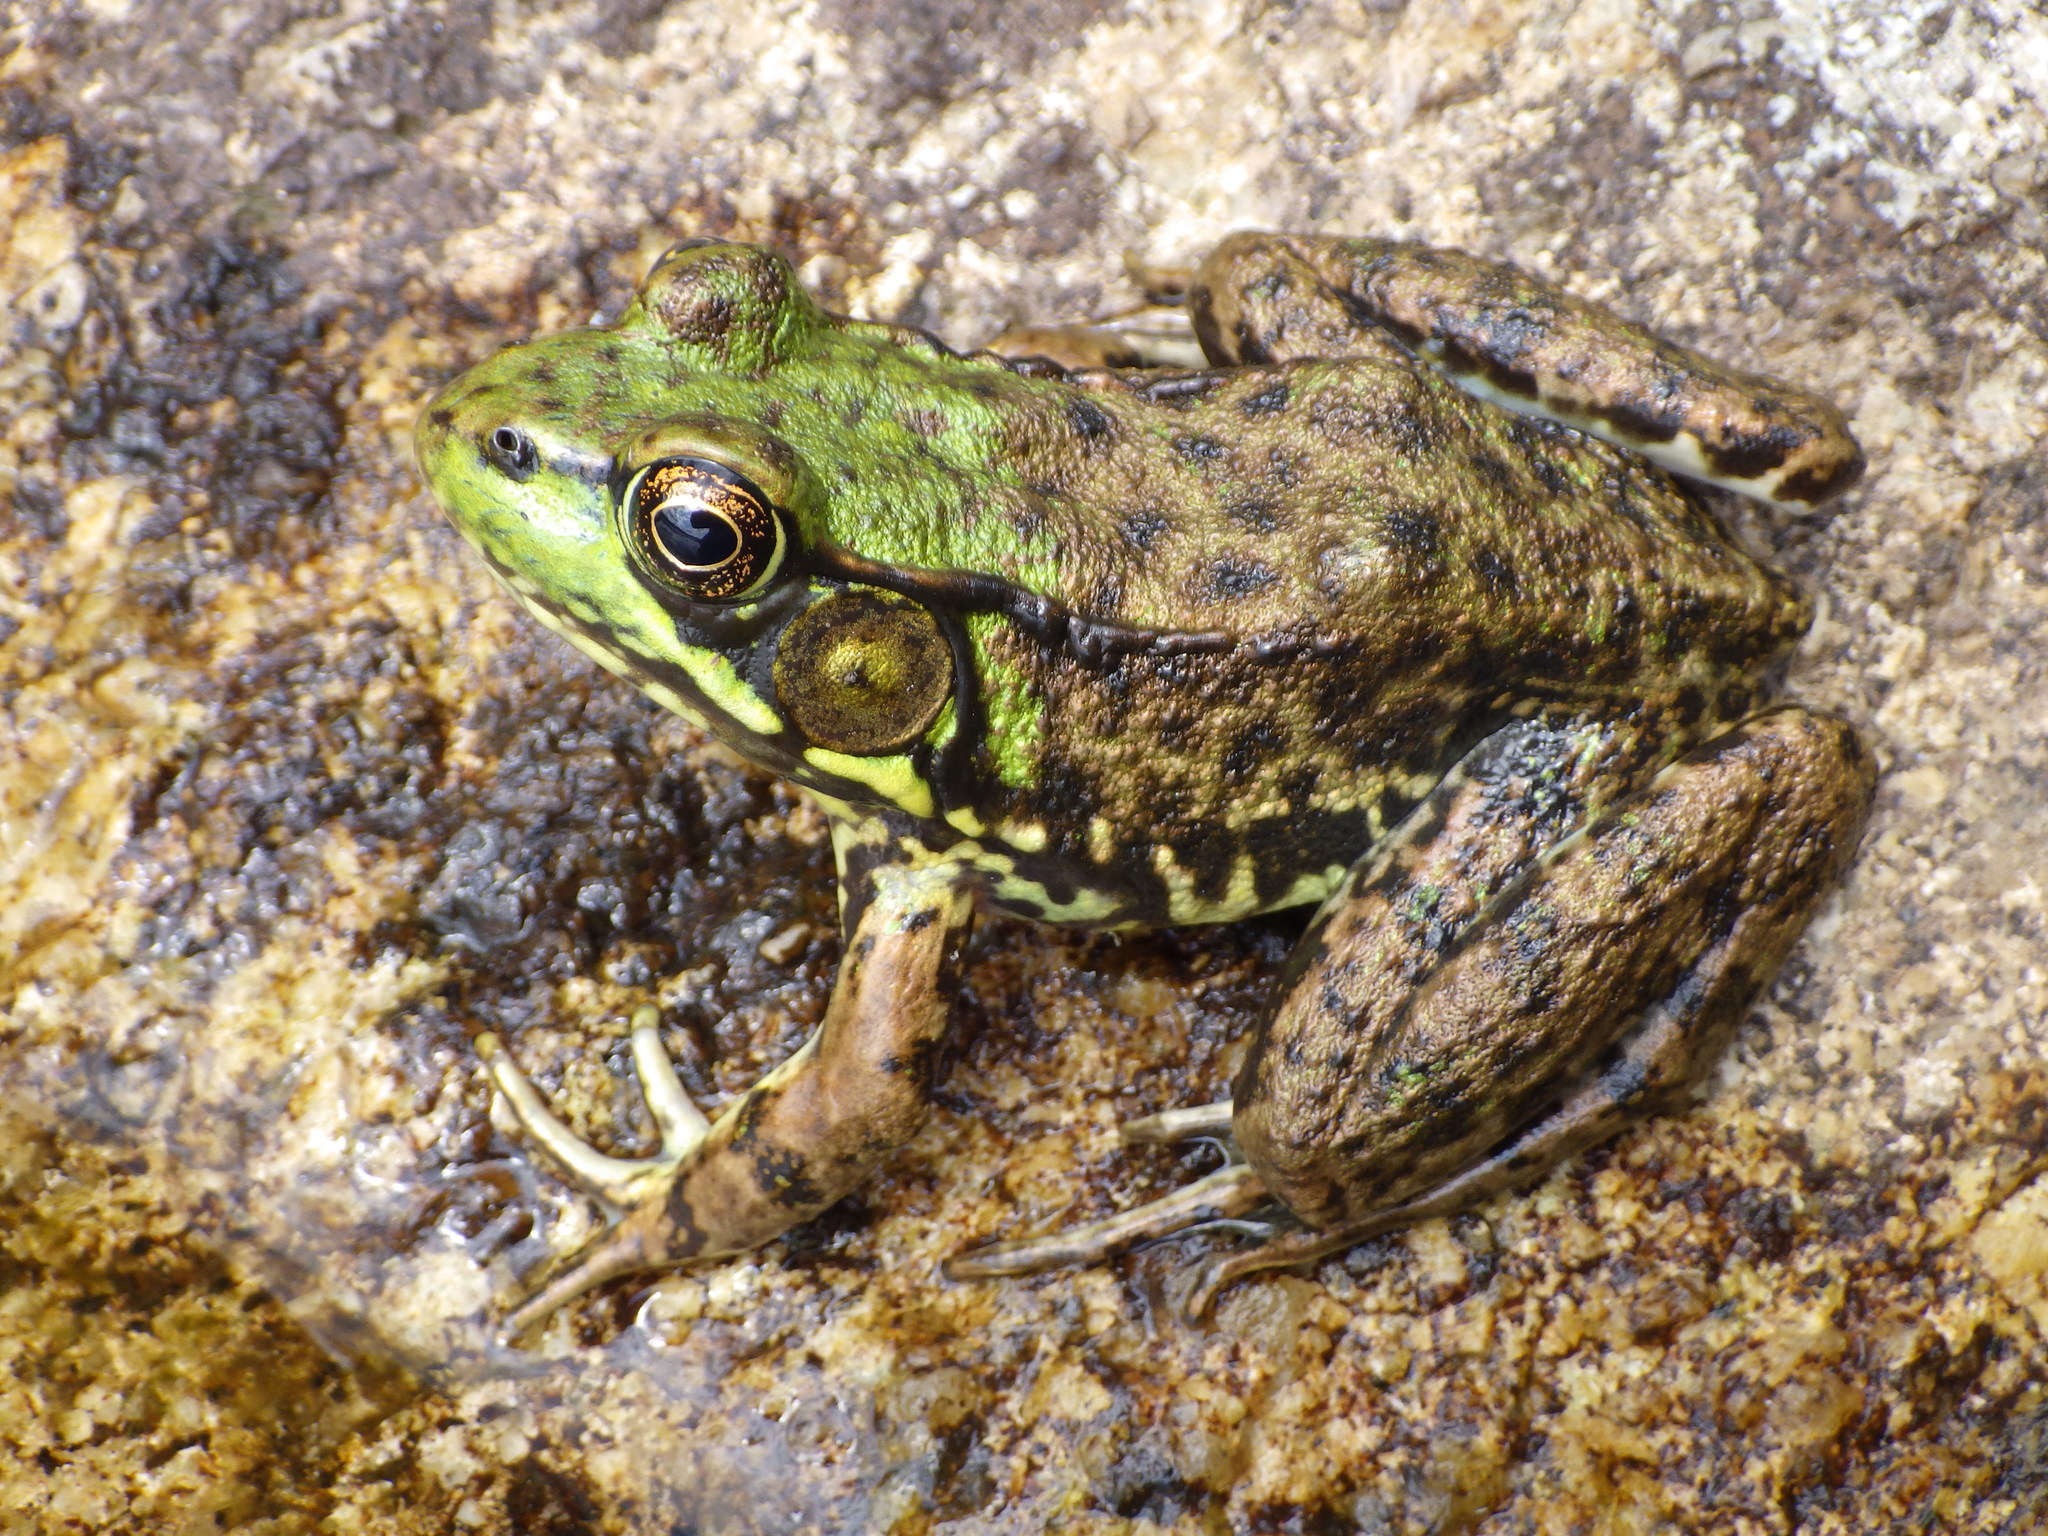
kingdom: Animalia
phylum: Chordata
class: Amphibia
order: Anura
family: Ranidae
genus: Lithobates
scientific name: Lithobates clamitans
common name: Green frog
